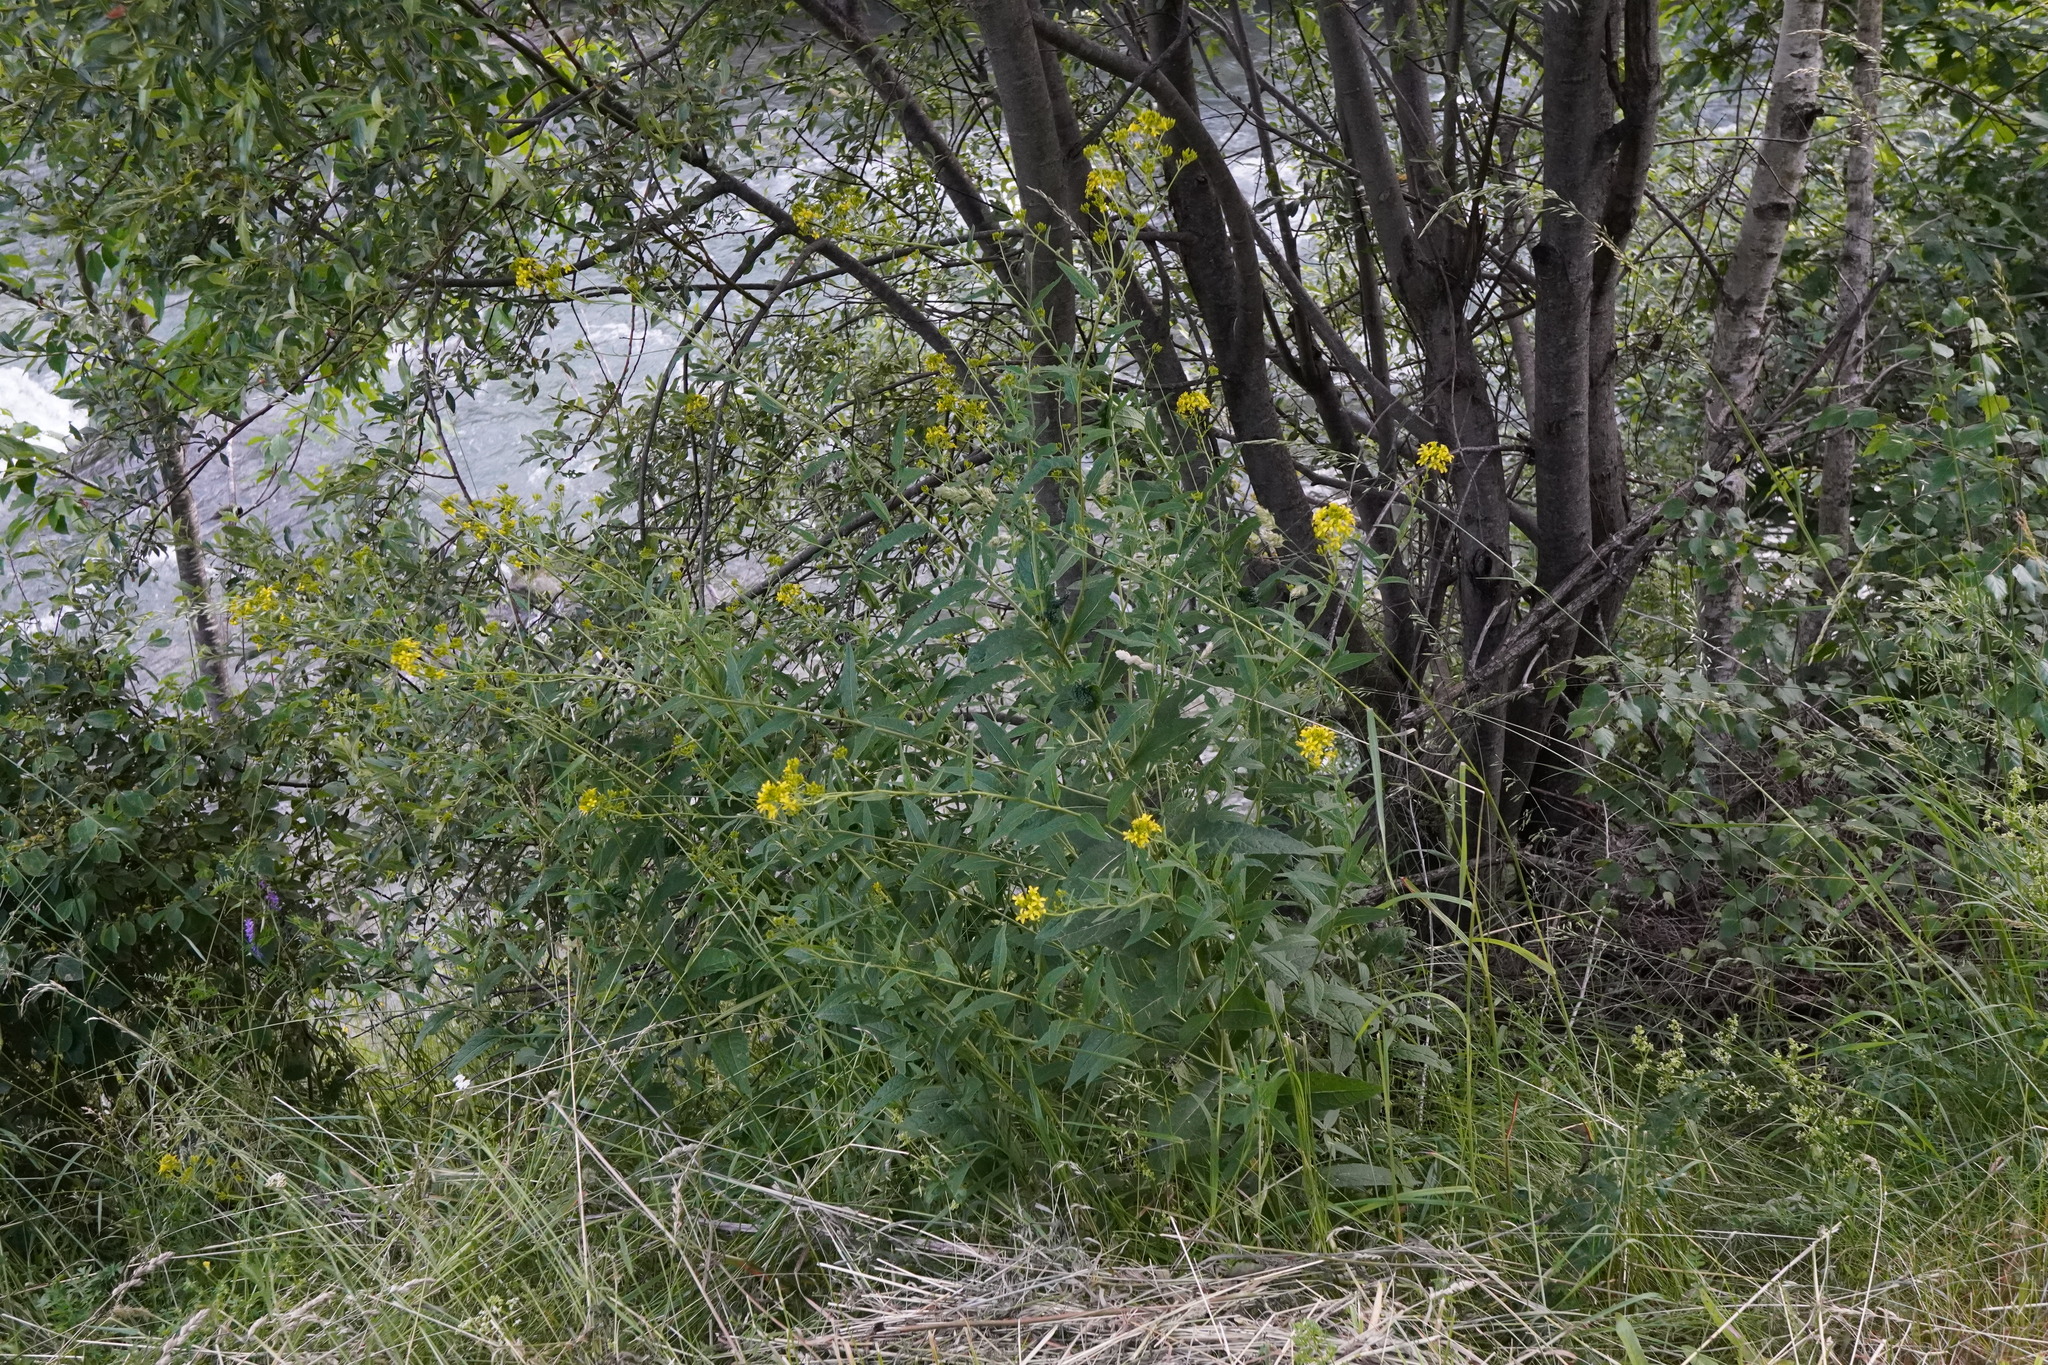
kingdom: Plantae
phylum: Tracheophyta
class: Magnoliopsida
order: Brassicales
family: Brassicaceae
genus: Sisymbrium
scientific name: Sisymbrium strictissimum
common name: Perennial rocket
